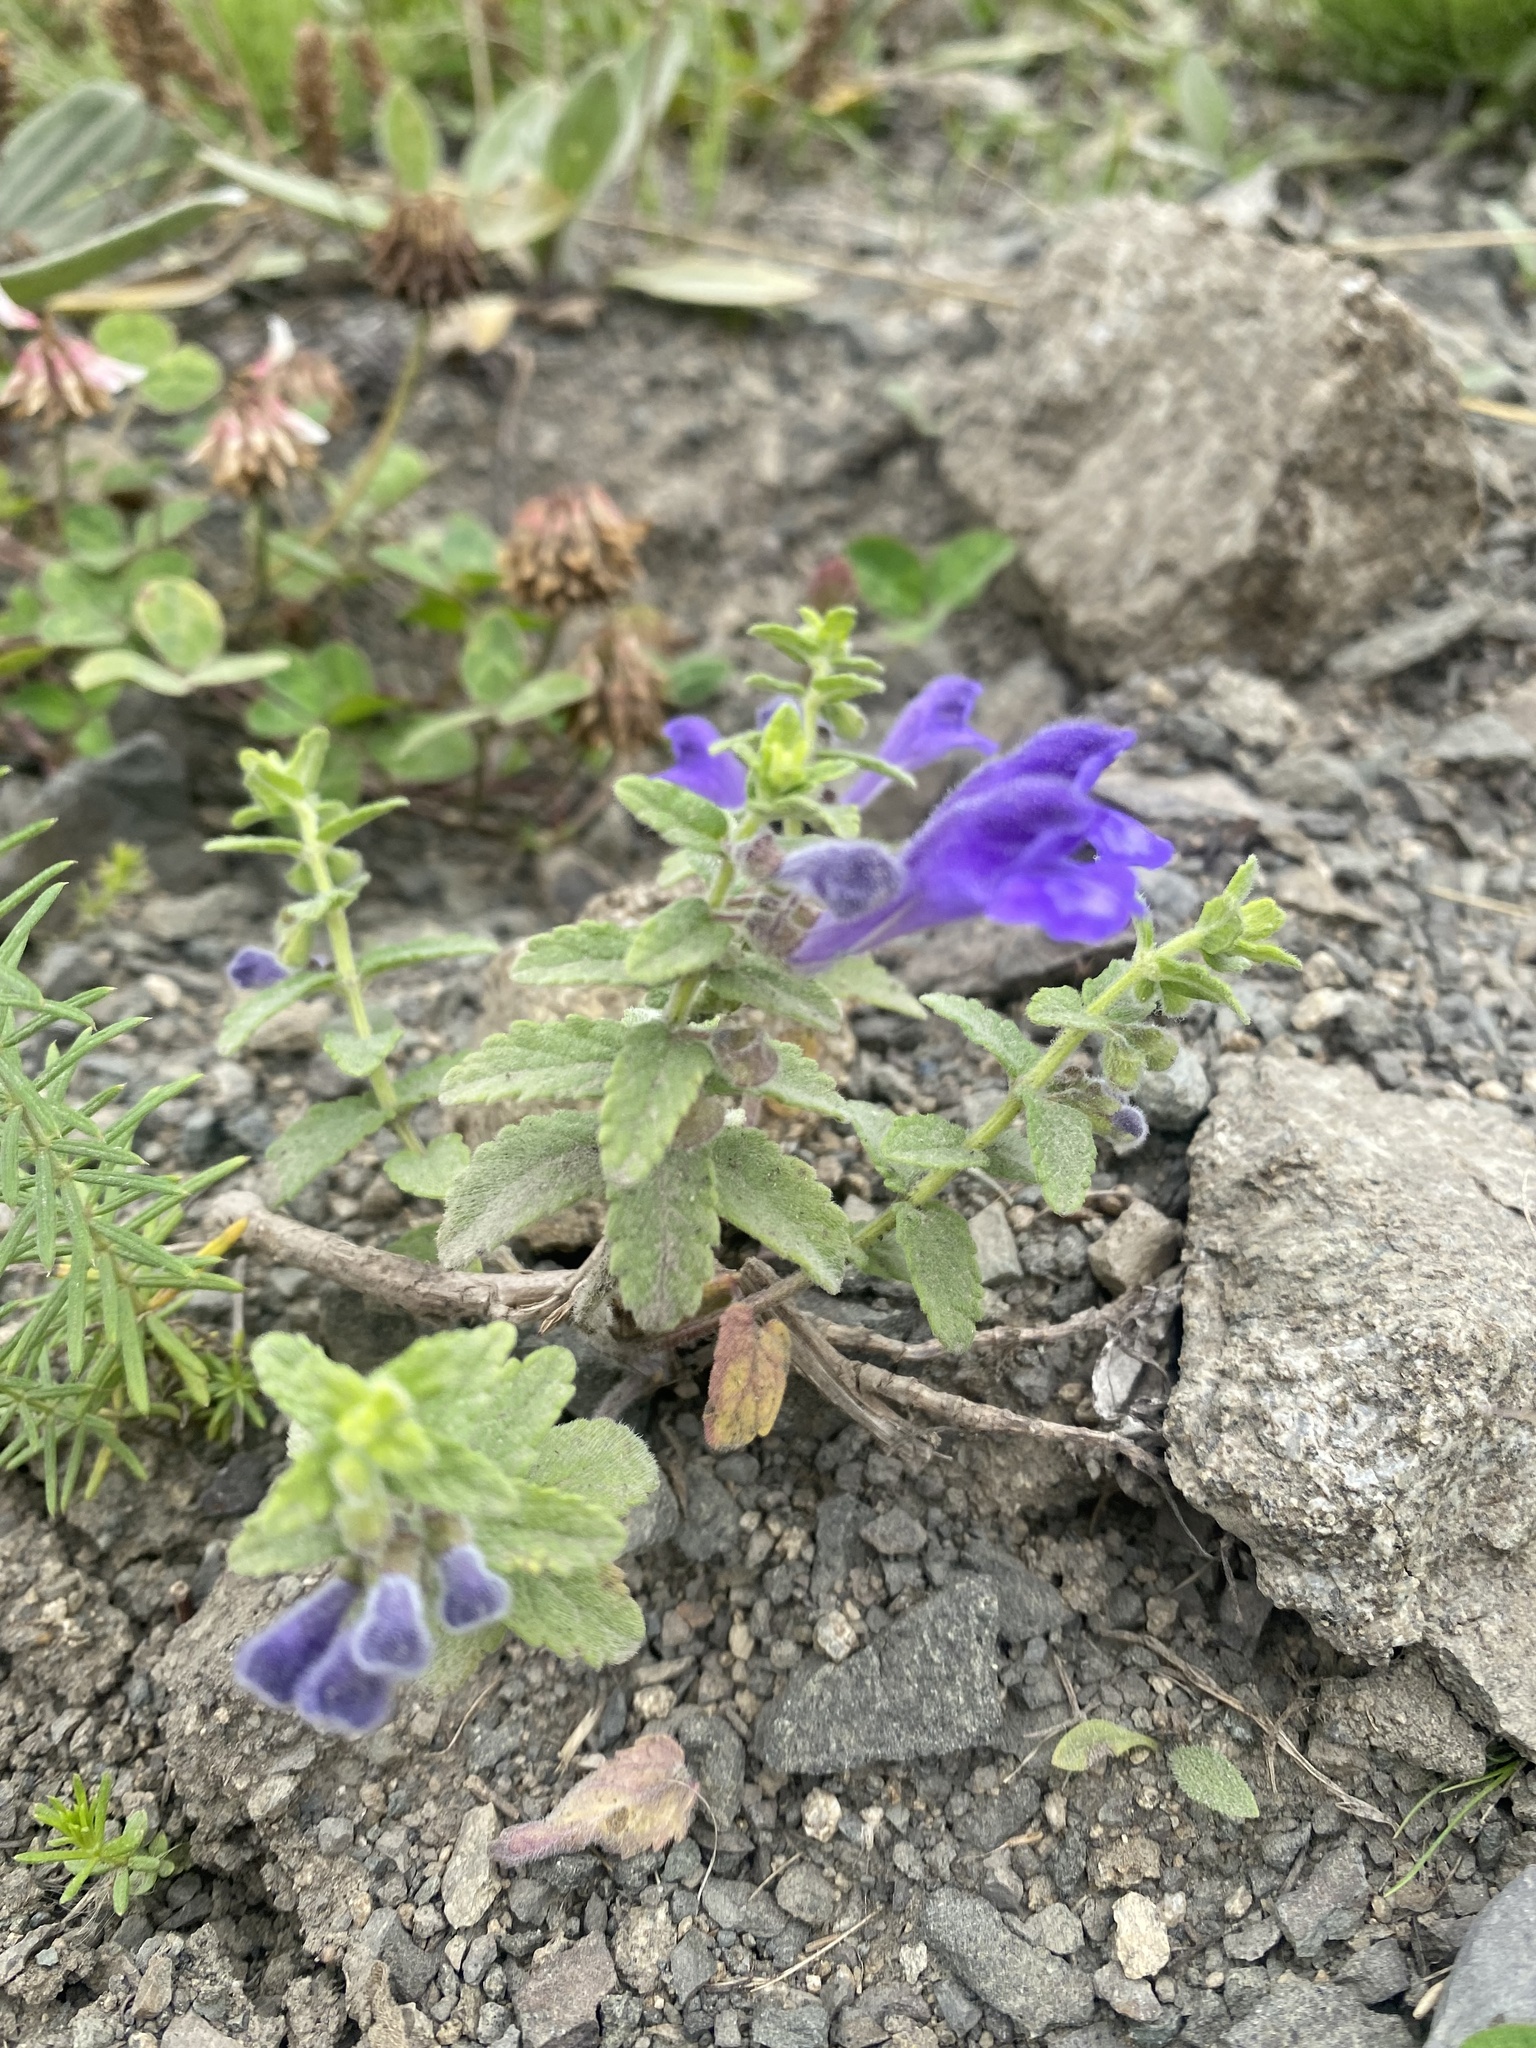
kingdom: Plantae
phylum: Tracheophyta
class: Magnoliopsida
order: Lamiales
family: Lamiaceae
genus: Scutellaria
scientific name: Scutellaria strigillosa
